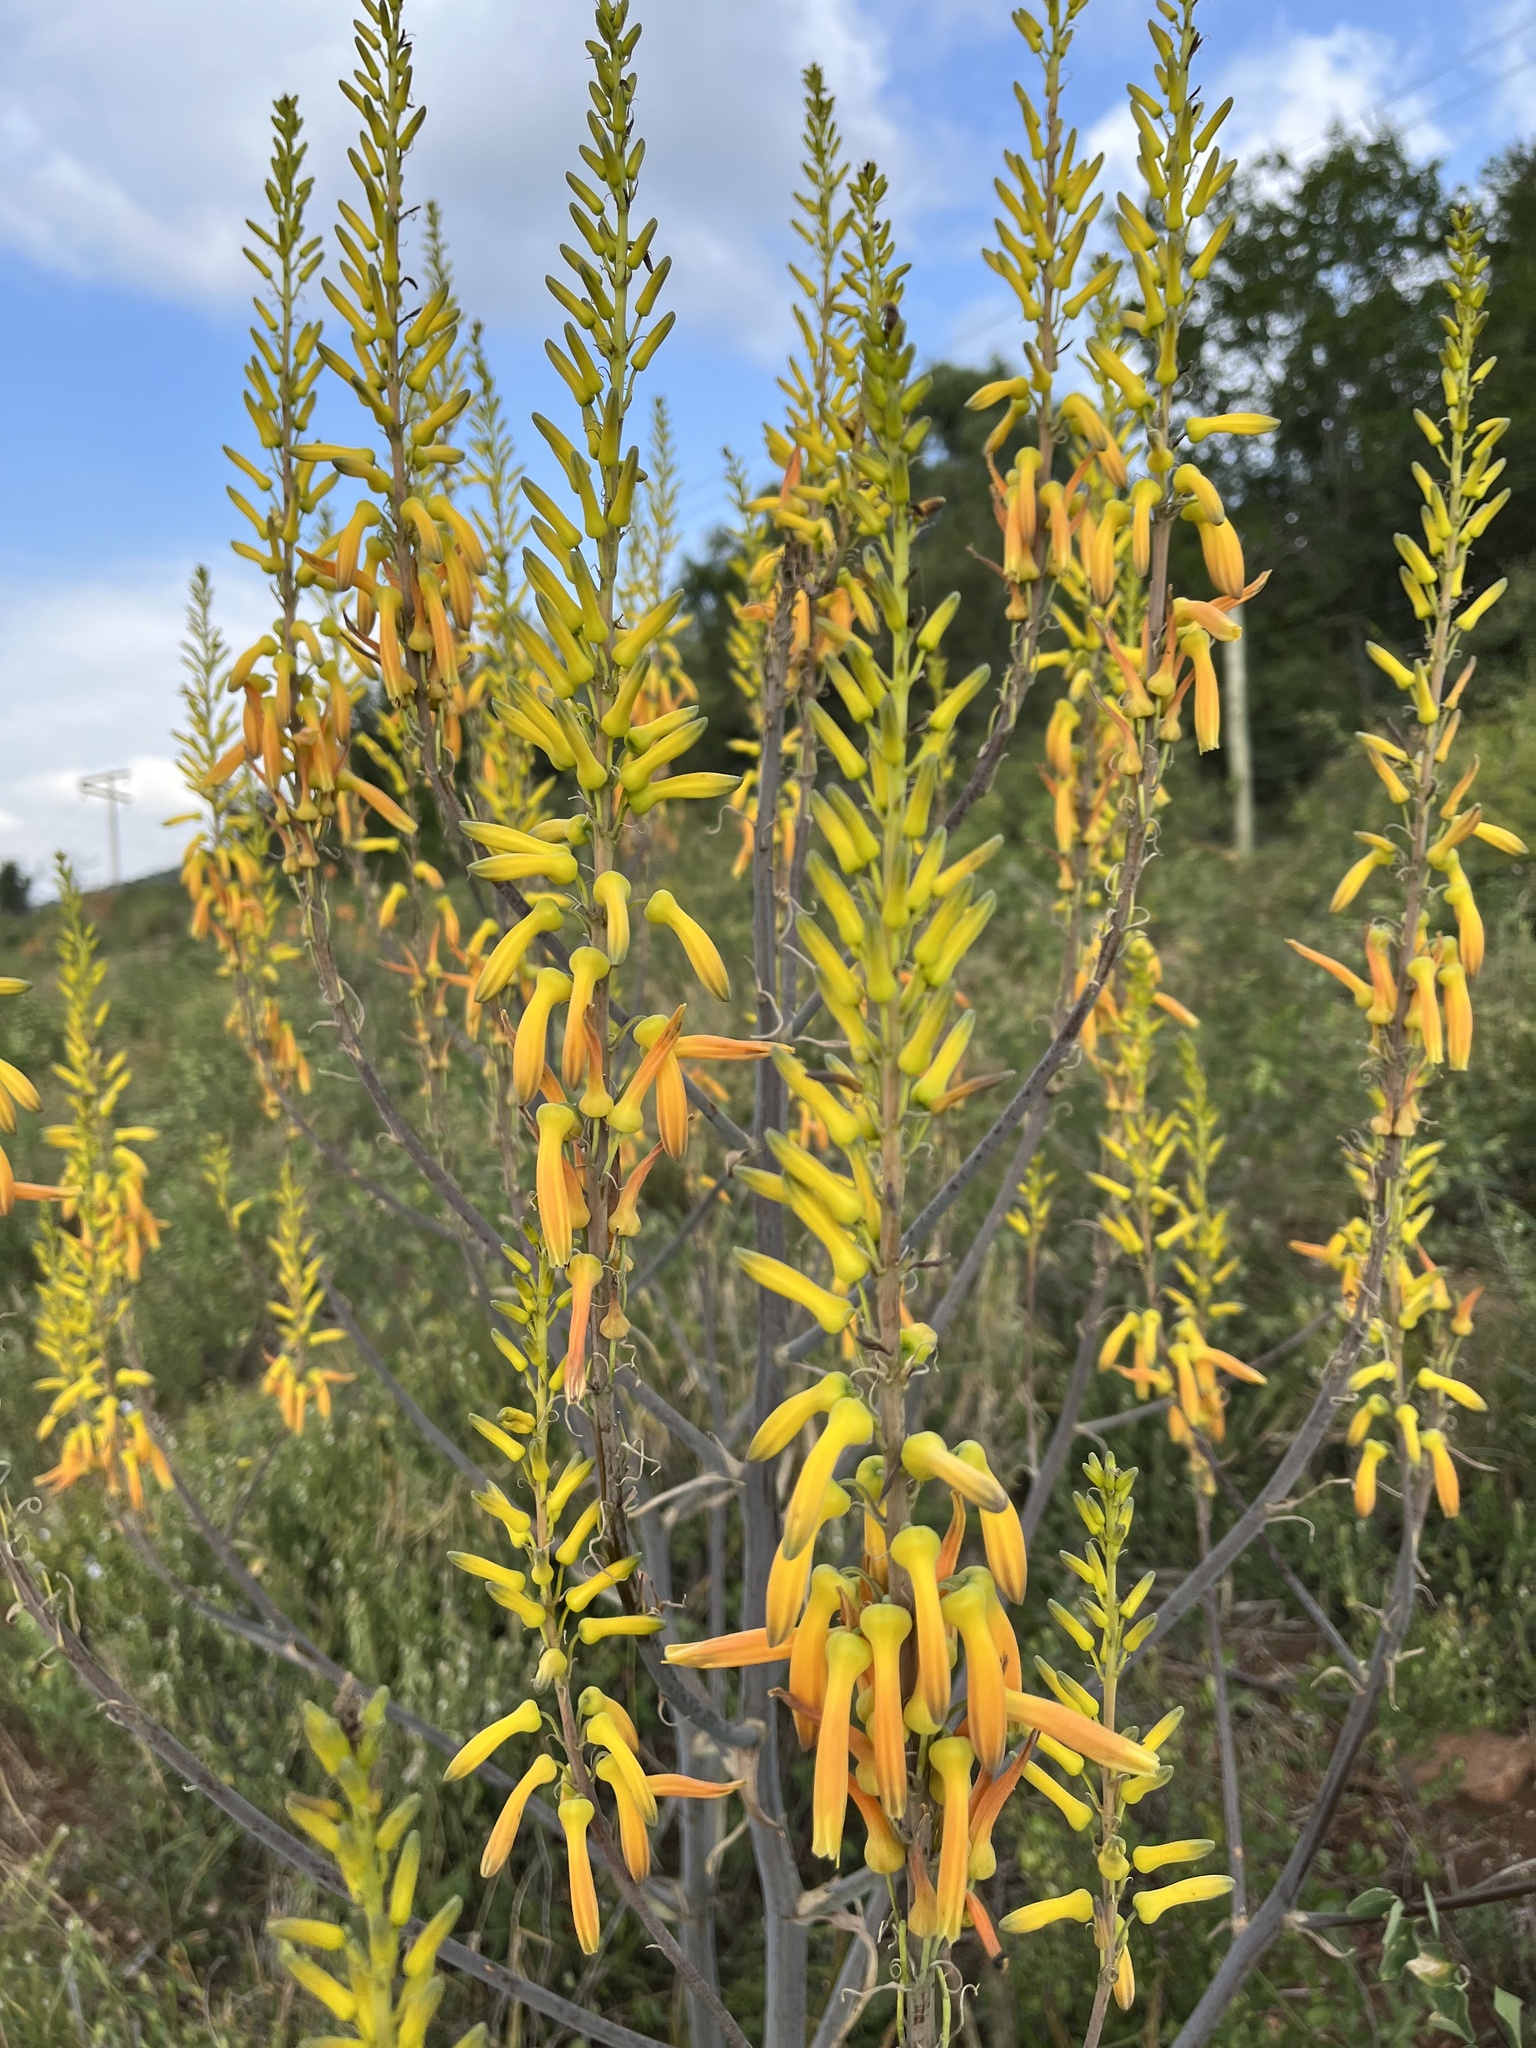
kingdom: Plantae
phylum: Tracheophyta
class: Liliopsida
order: Asparagales
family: Asphodelaceae
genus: Aloe
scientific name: Aloe fosteri
